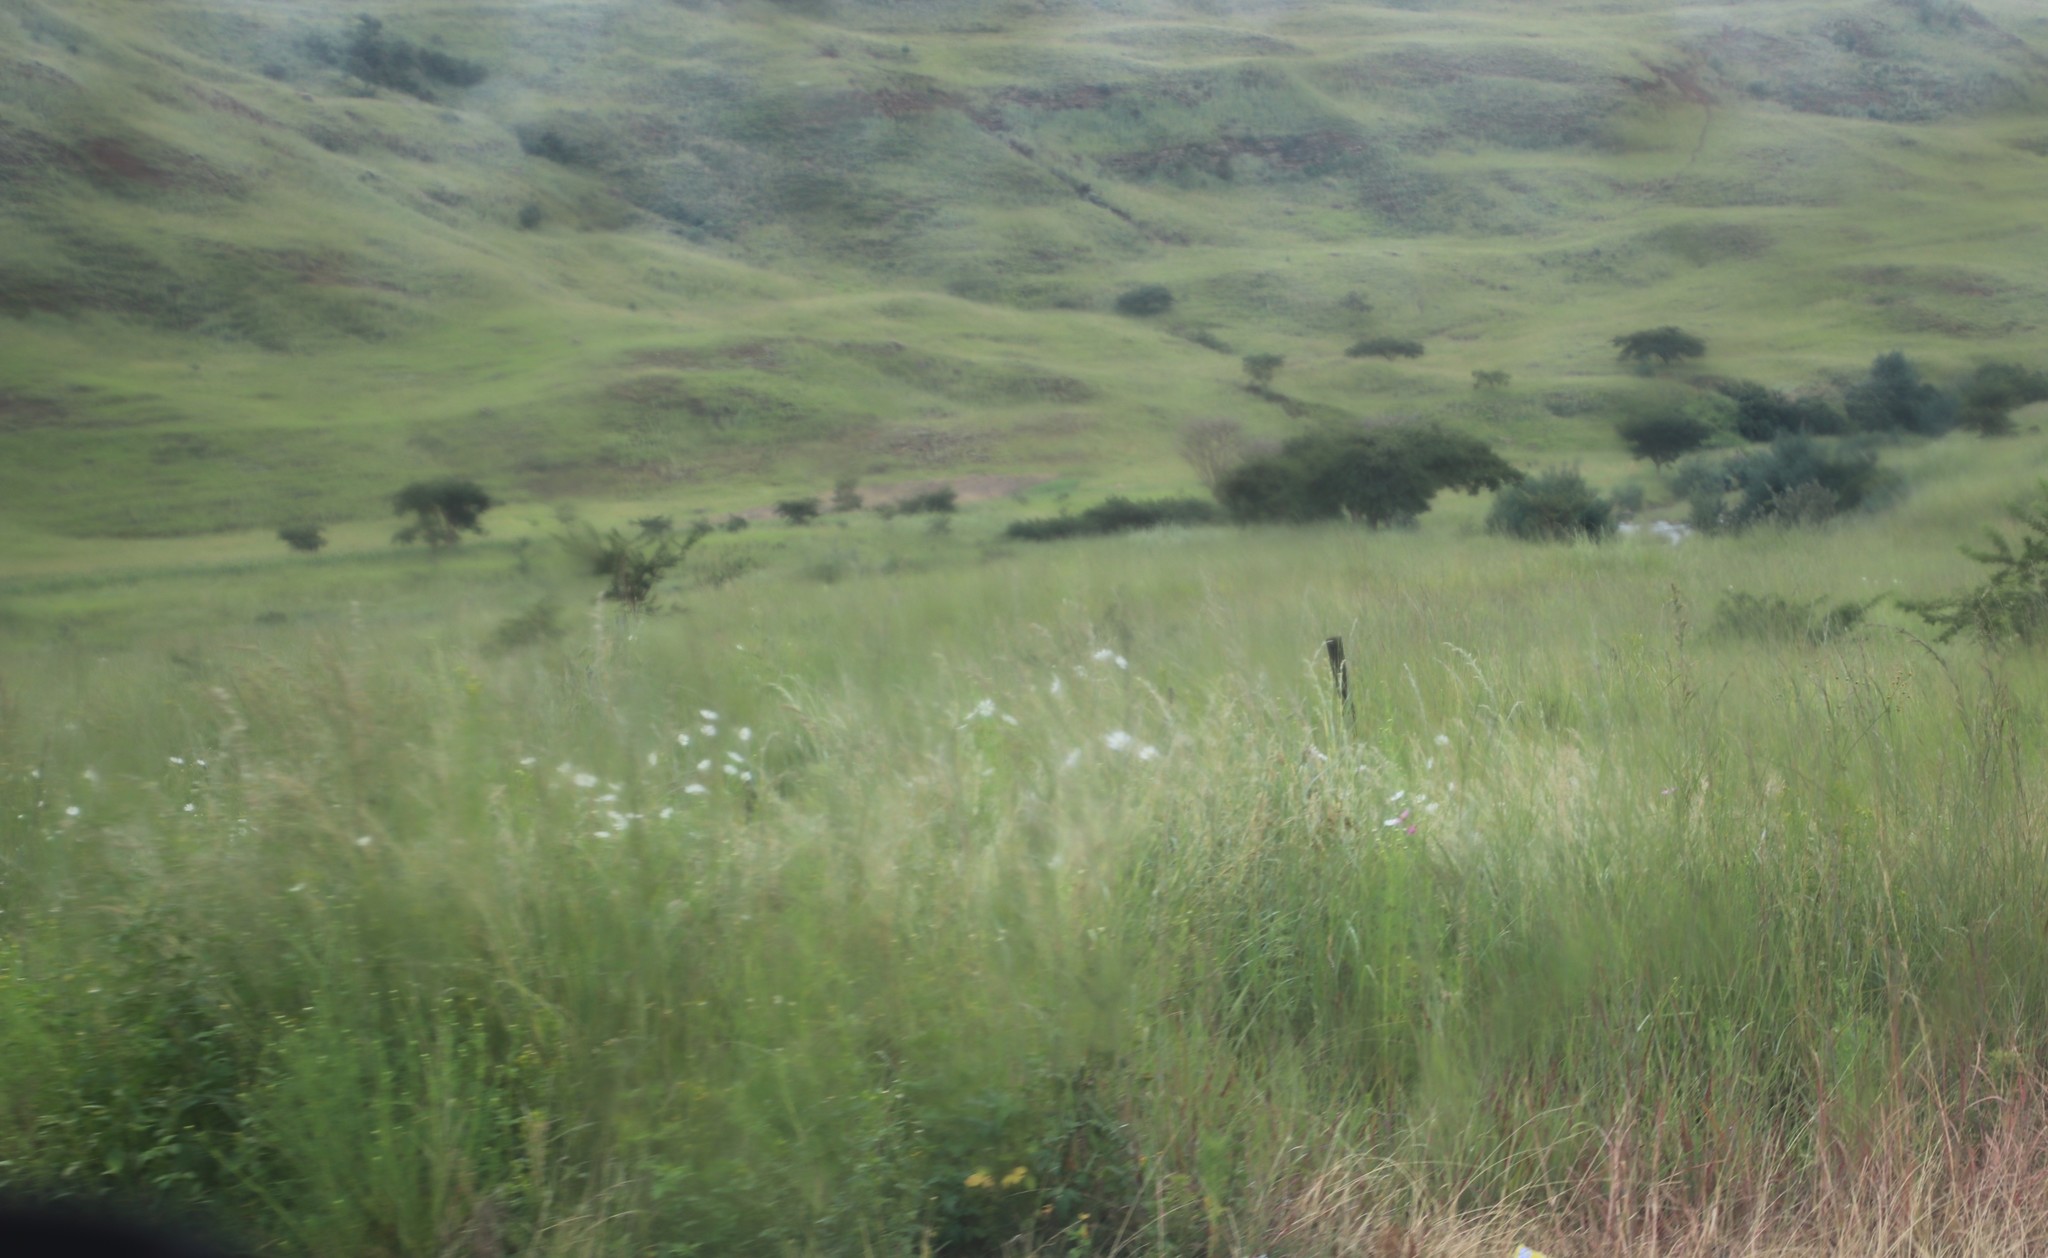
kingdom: Plantae
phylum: Tracheophyta
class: Magnoliopsida
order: Asterales
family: Asteraceae
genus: Cosmos
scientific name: Cosmos bipinnatus
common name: Garden cosmos
